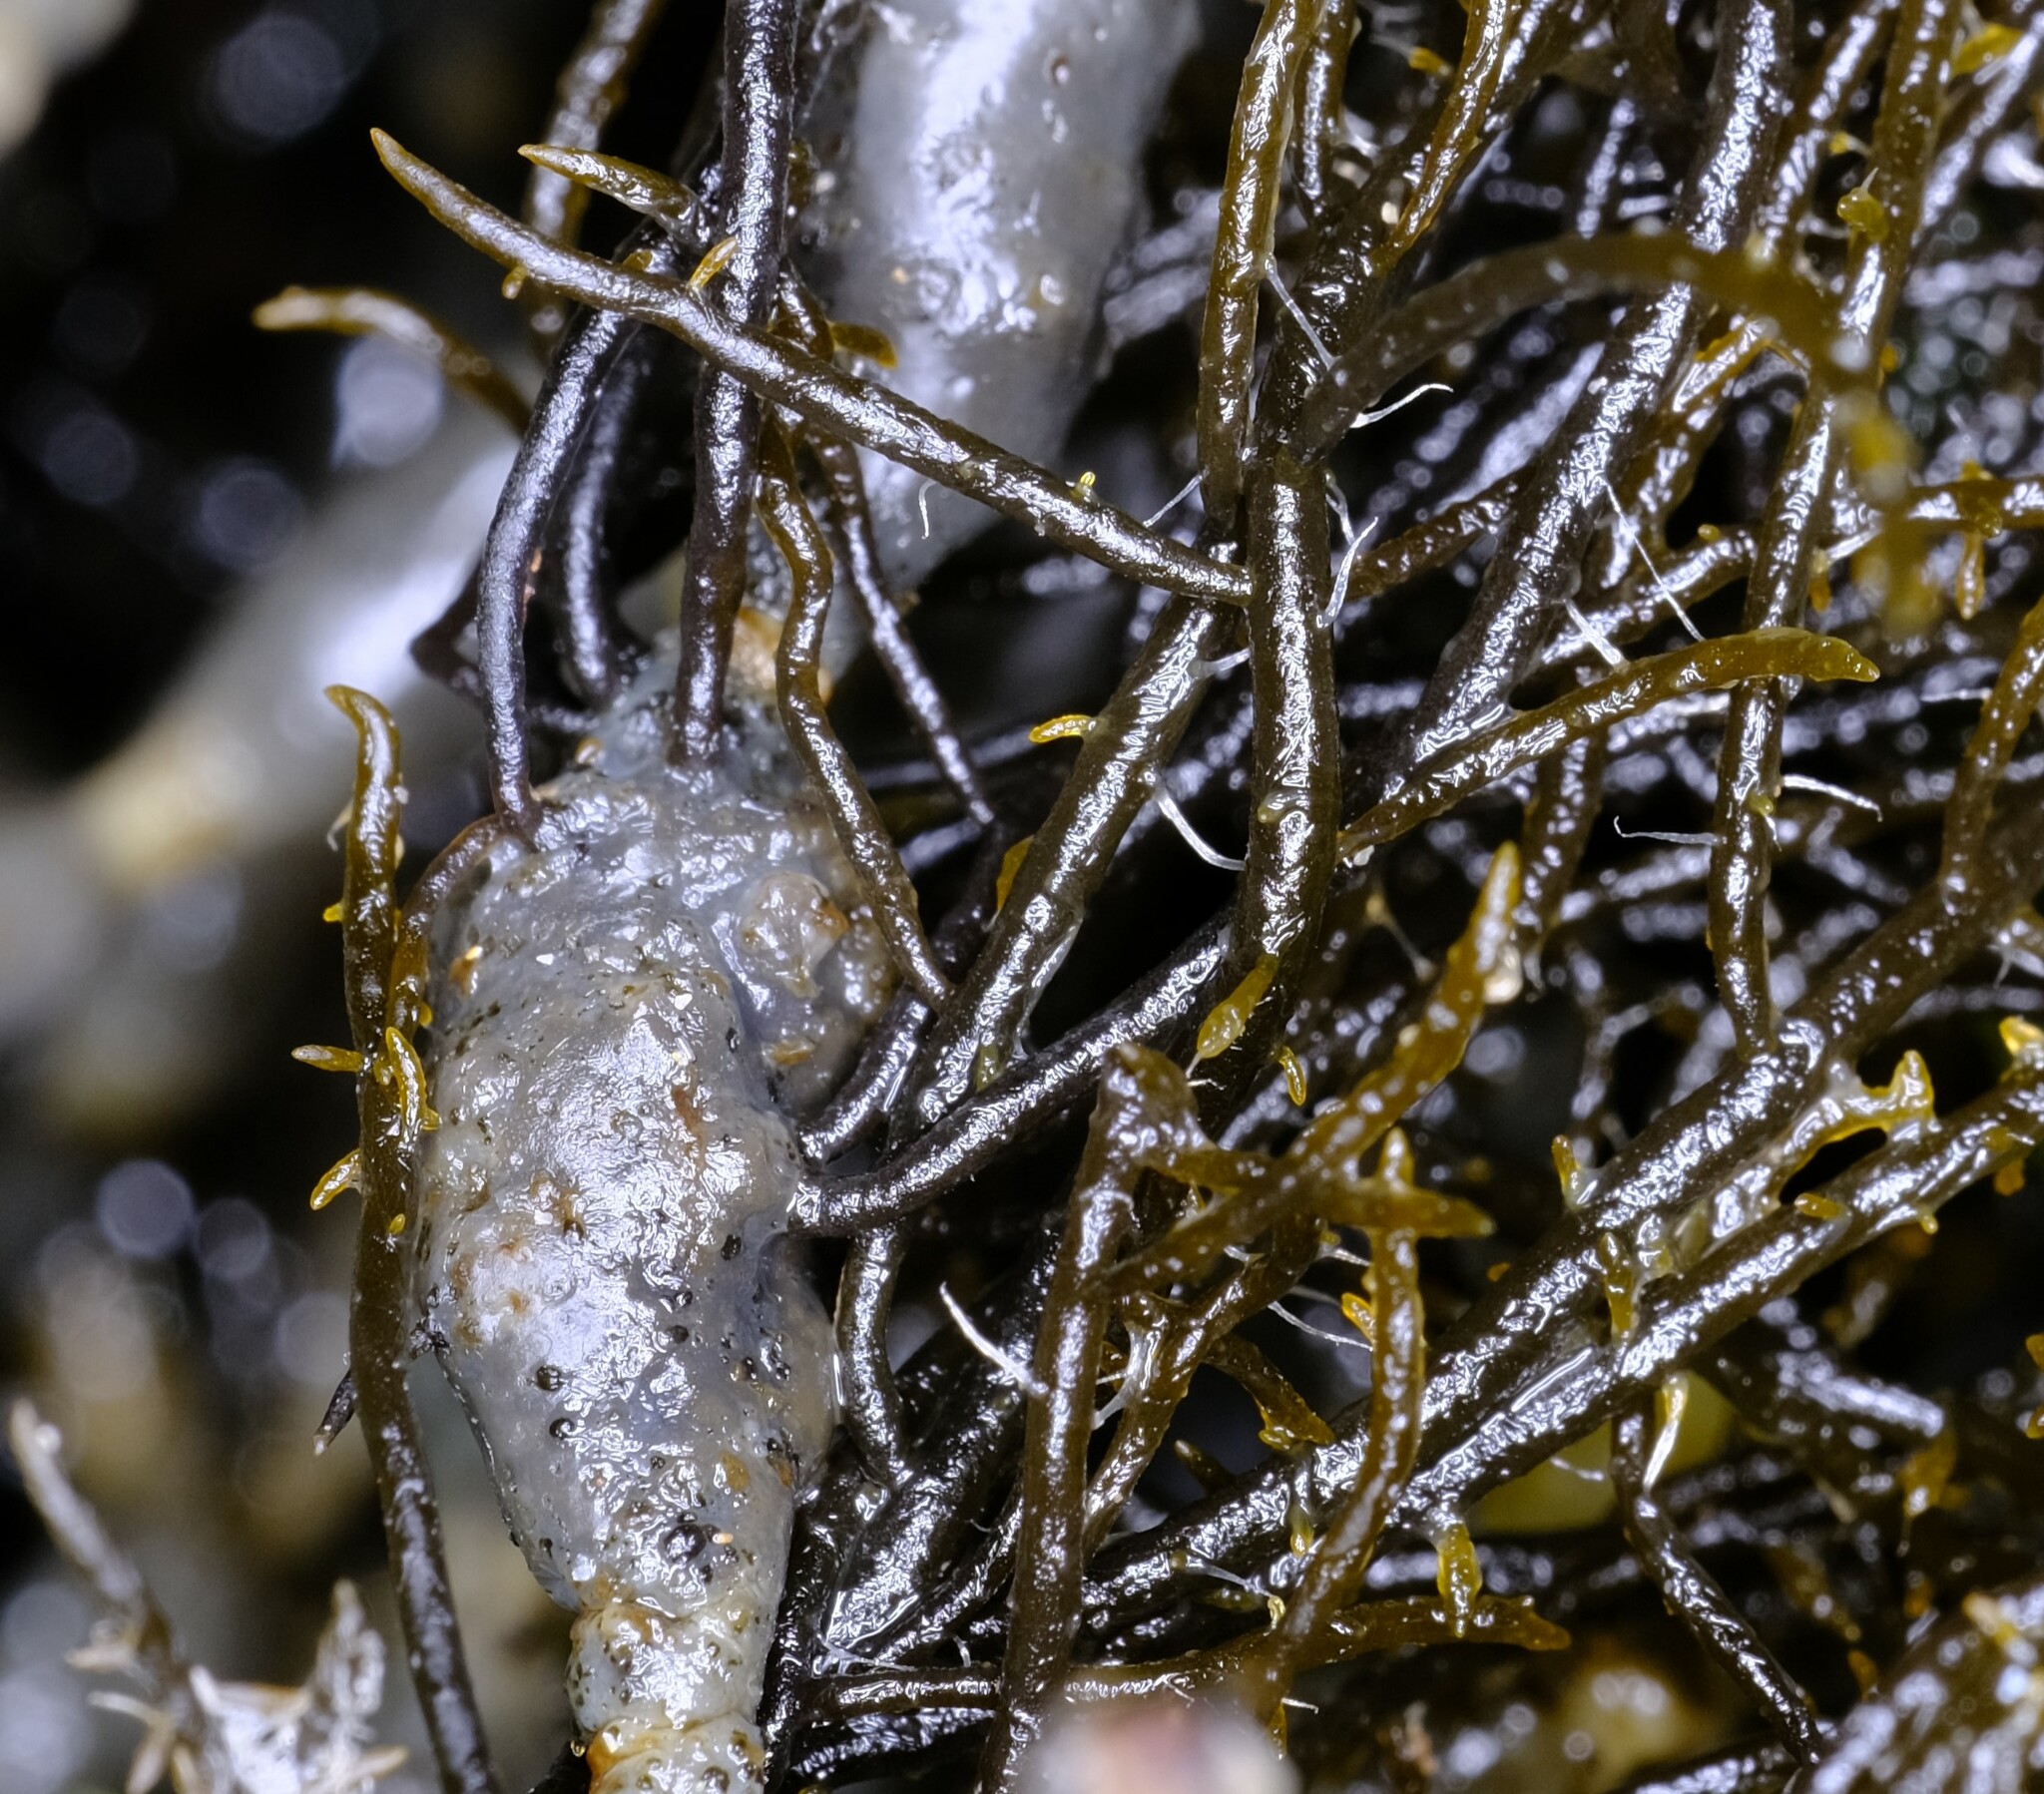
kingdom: Chromista
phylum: Ochrophyta
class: Phaeophyceae
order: Fucales
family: Notheiaceae
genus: Notheia
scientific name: Notheia anomala
